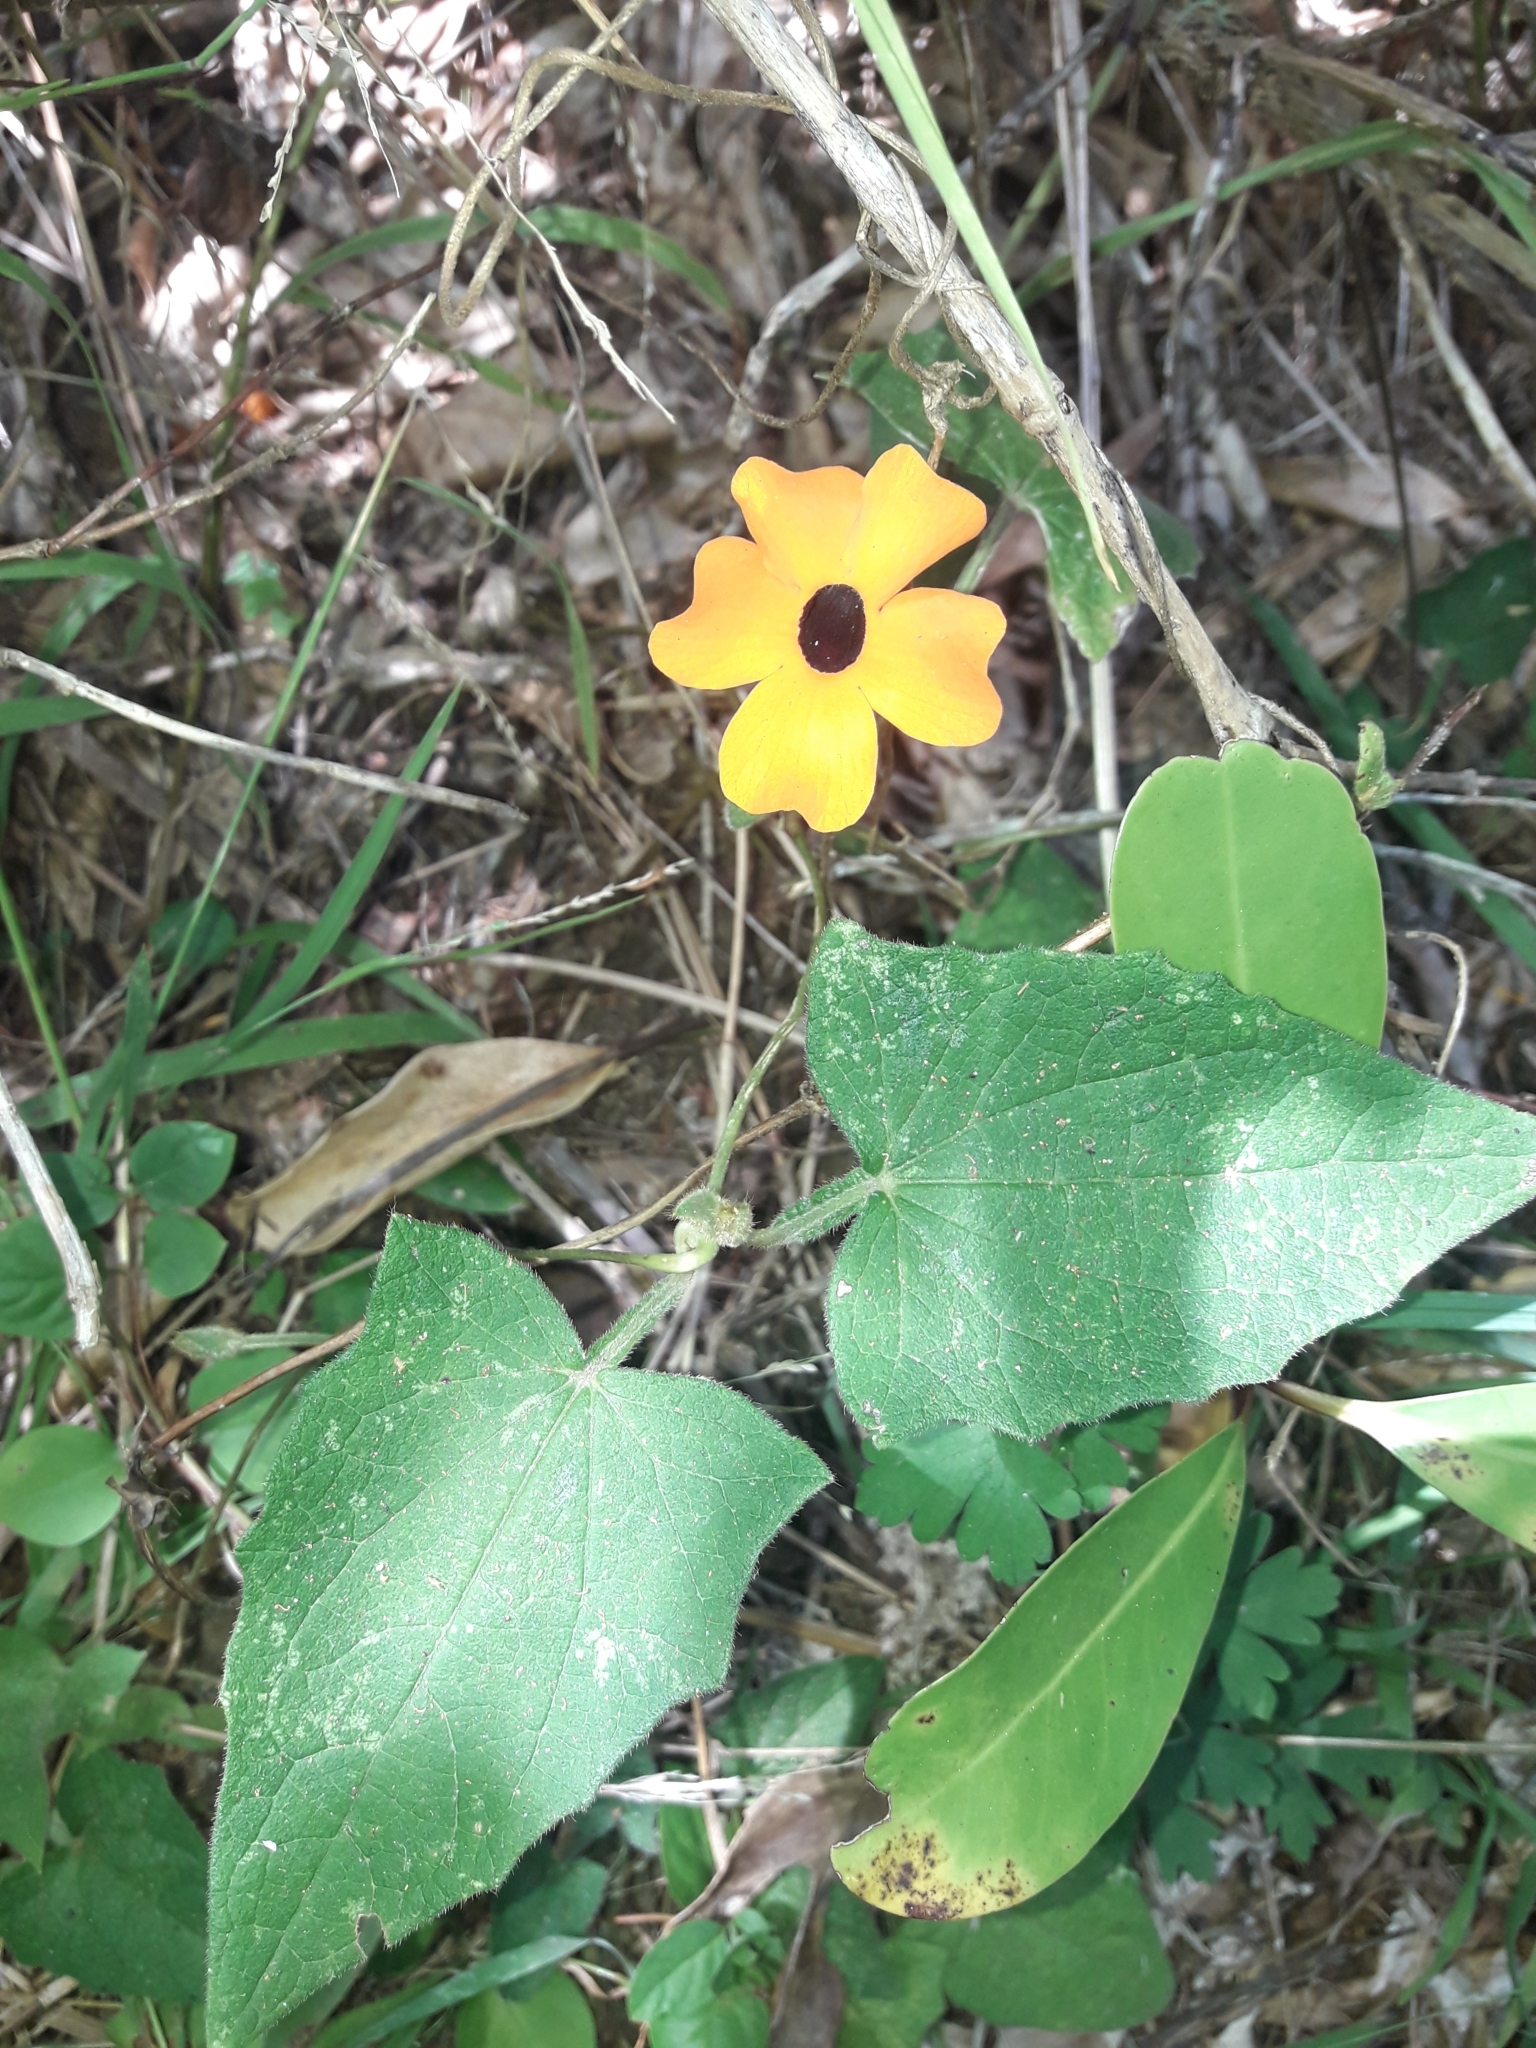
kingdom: Plantae
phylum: Tracheophyta
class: Magnoliopsida
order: Lamiales
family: Acanthaceae
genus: Thunbergia
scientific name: Thunbergia alata
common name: Blackeyed susan vine
